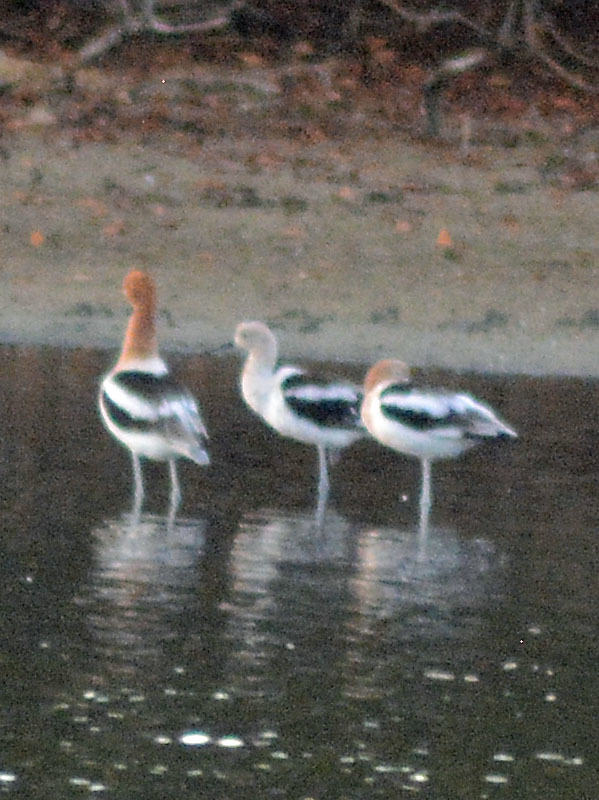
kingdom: Animalia
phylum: Chordata
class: Aves
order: Charadriiformes
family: Recurvirostridae
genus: Recurvirostra
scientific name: Recurvirostra americana
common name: American avocet
